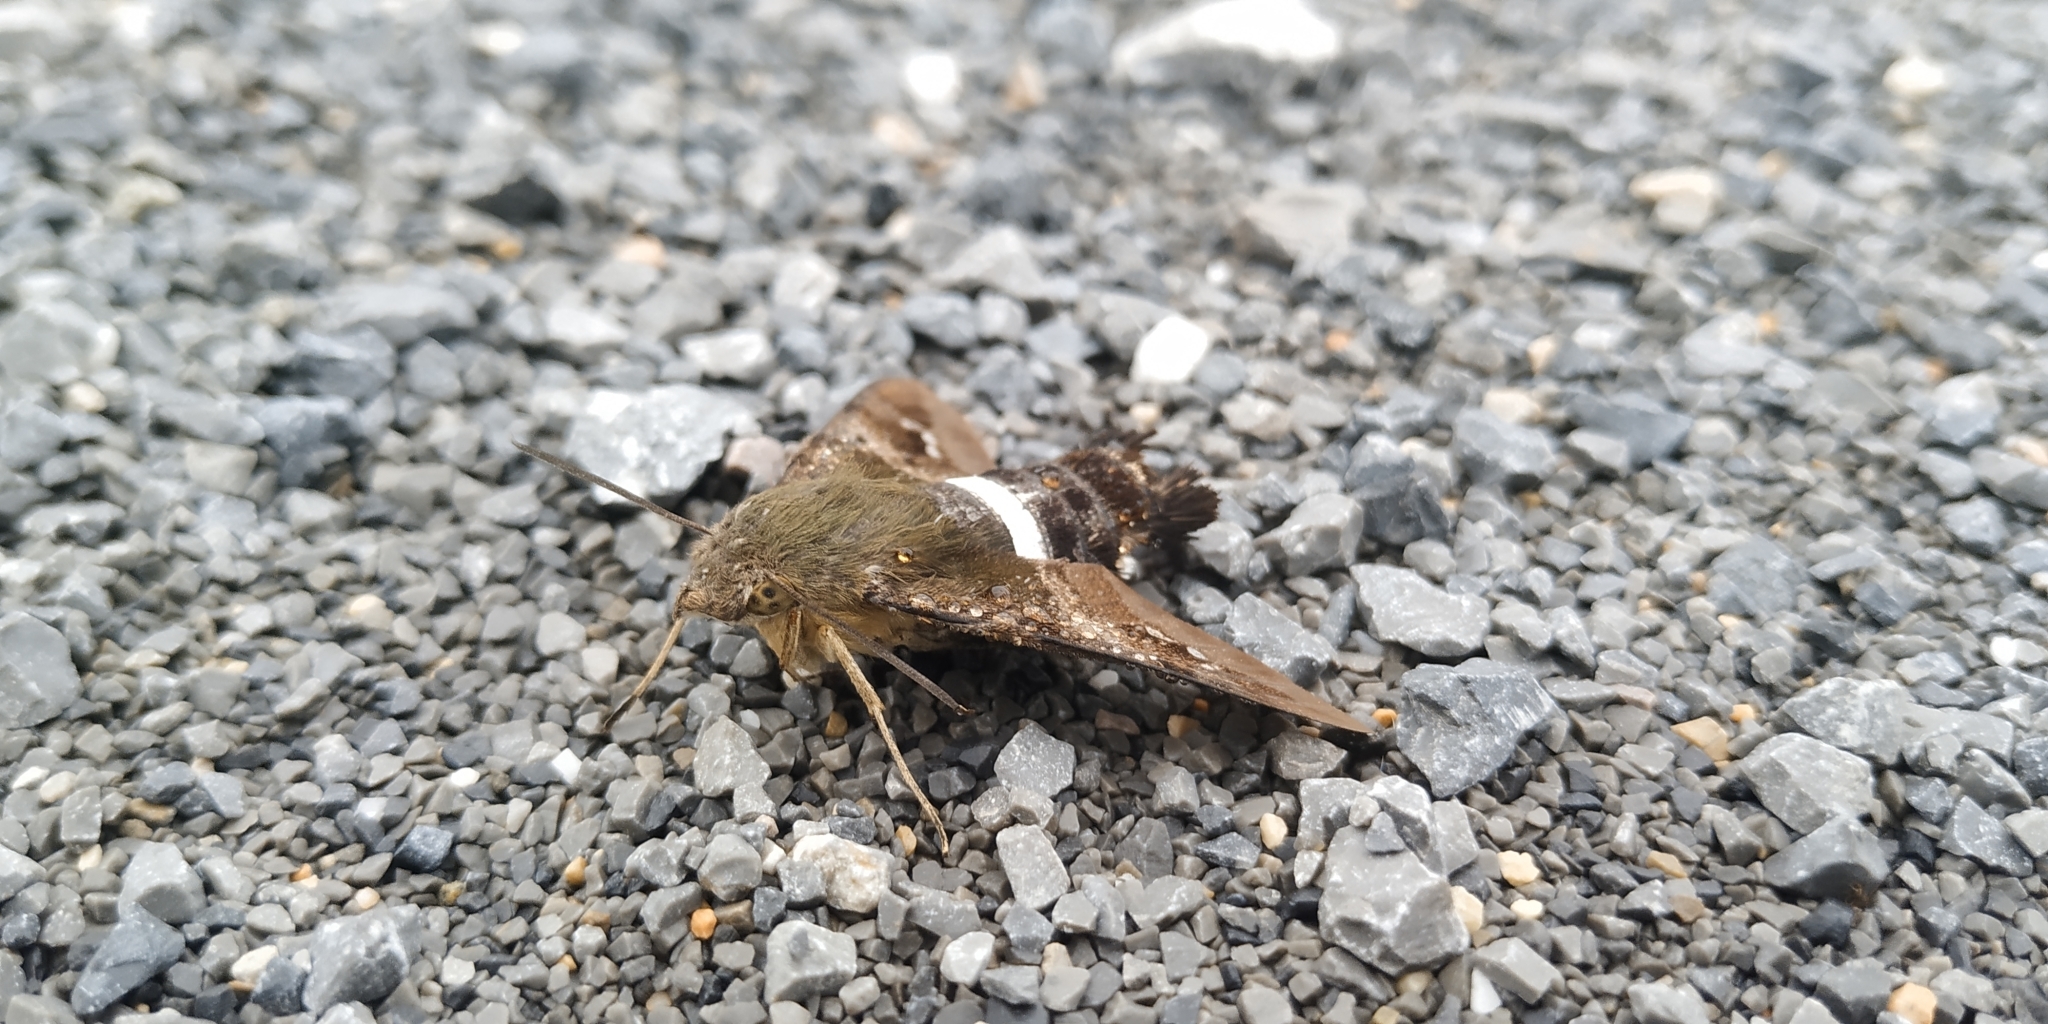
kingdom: Animalia
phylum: Arthropoda
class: Insecta
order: Lepidoptera
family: Sphingidae
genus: Aellopos
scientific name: Aellopos clavipes
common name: Clavipes sphinx
